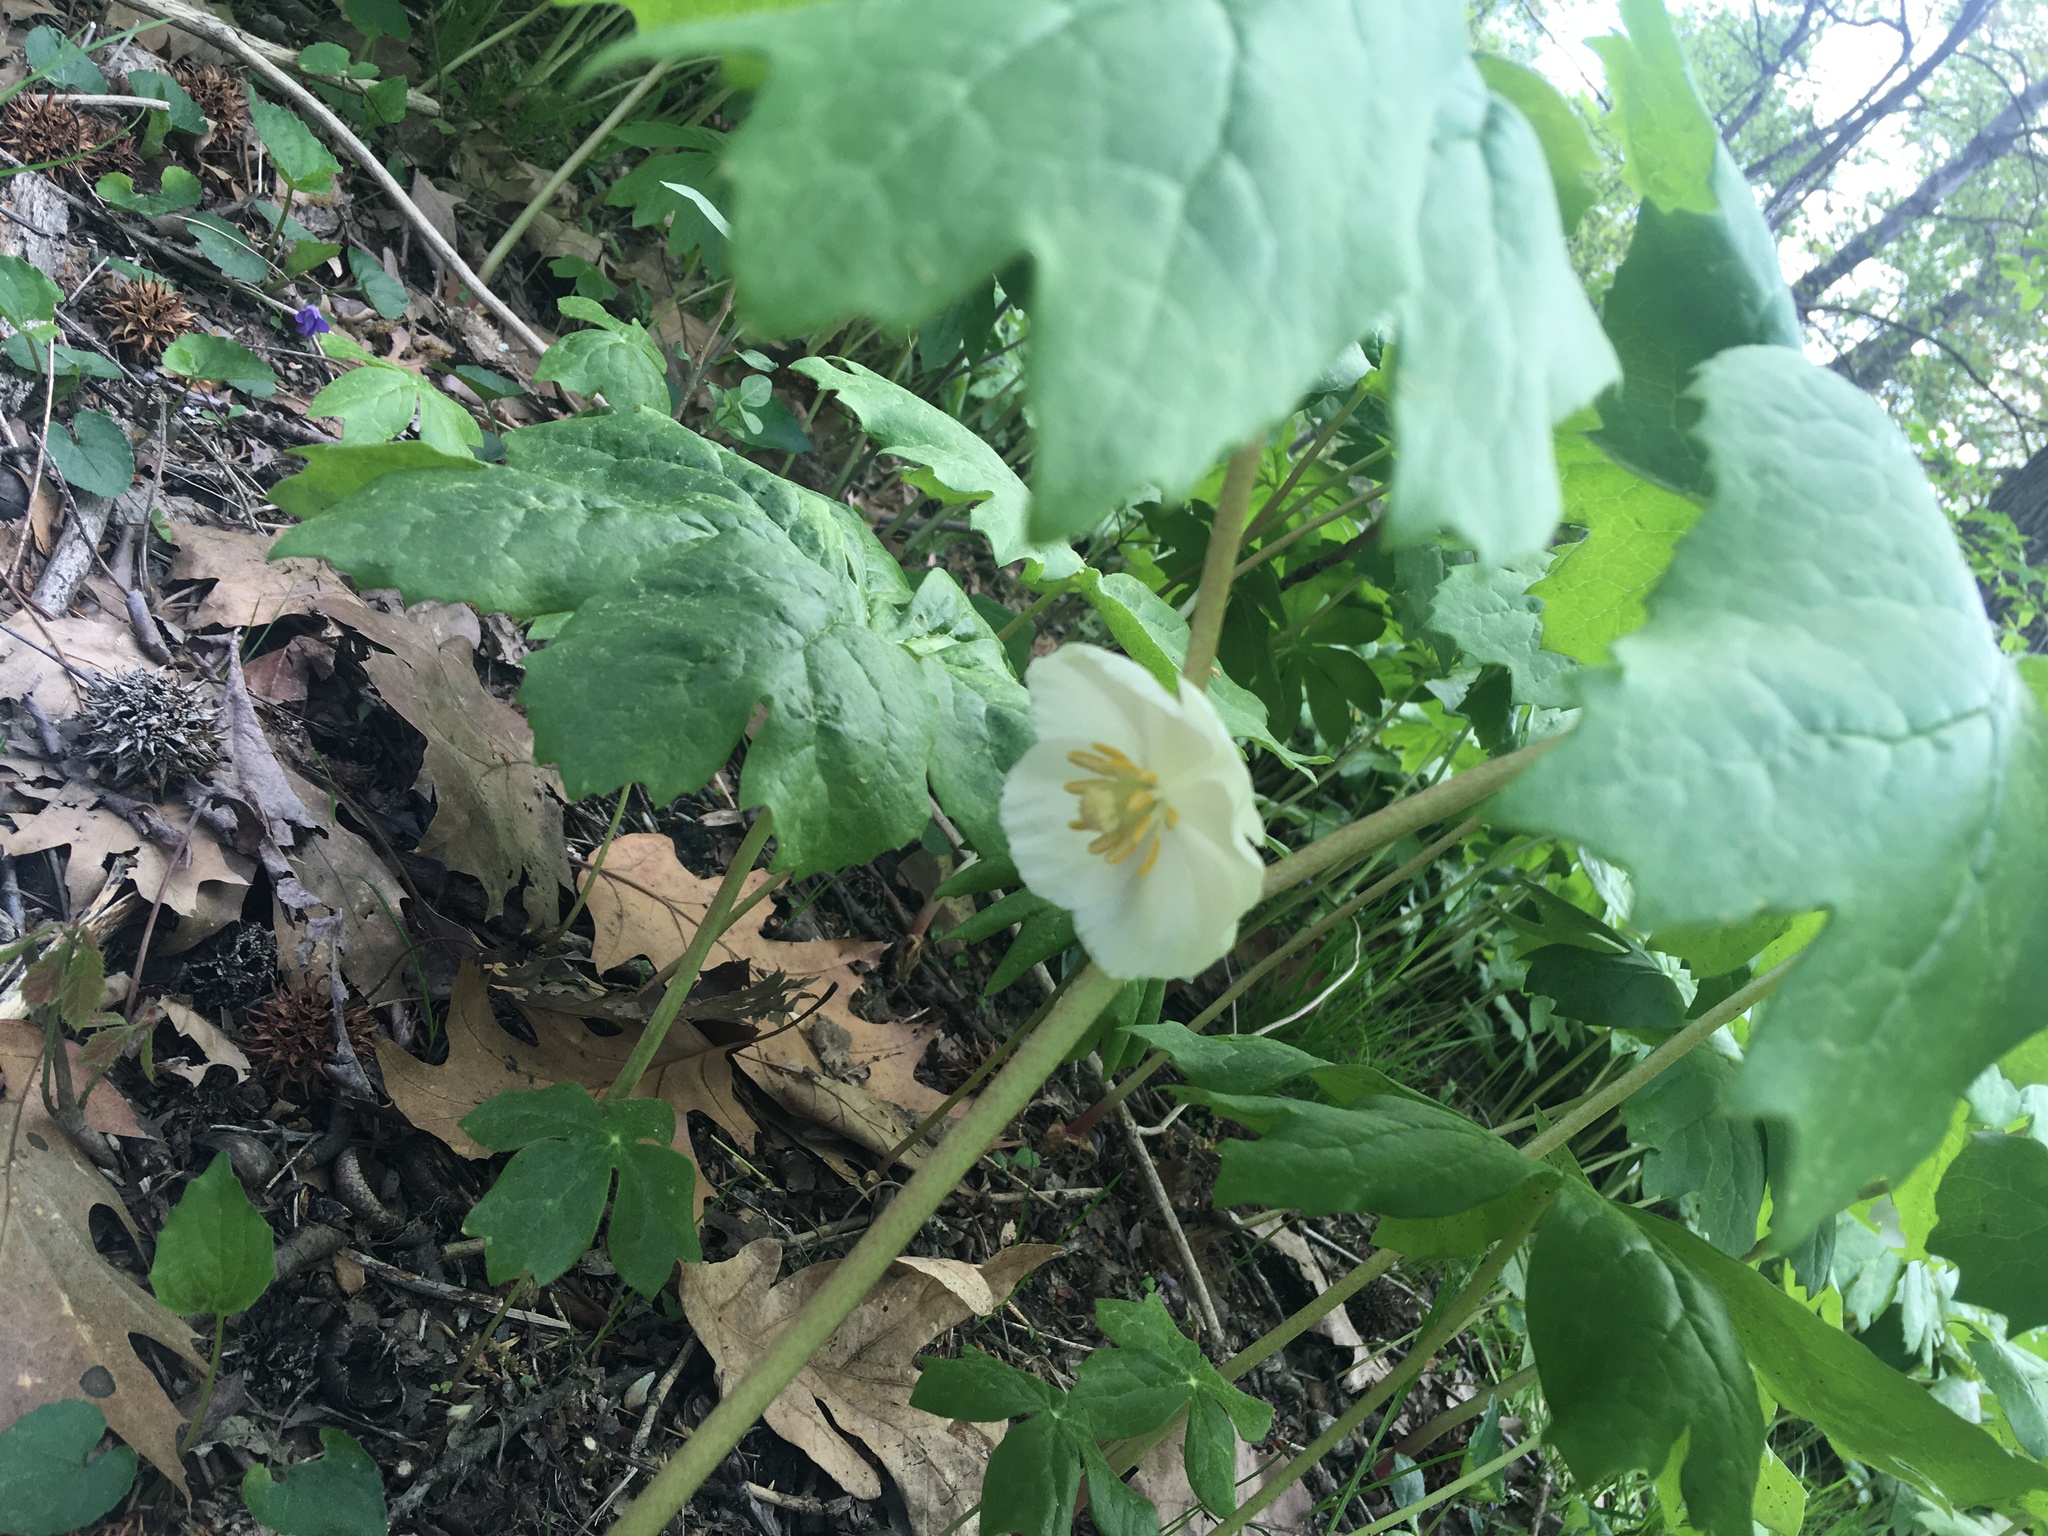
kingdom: Plantae
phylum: Tracheophyta
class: Magnoliopsida
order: Ranunculales
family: Berberidaceae
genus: Podophyllum
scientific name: Podophyllum peltatum
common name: Wild mandrake
